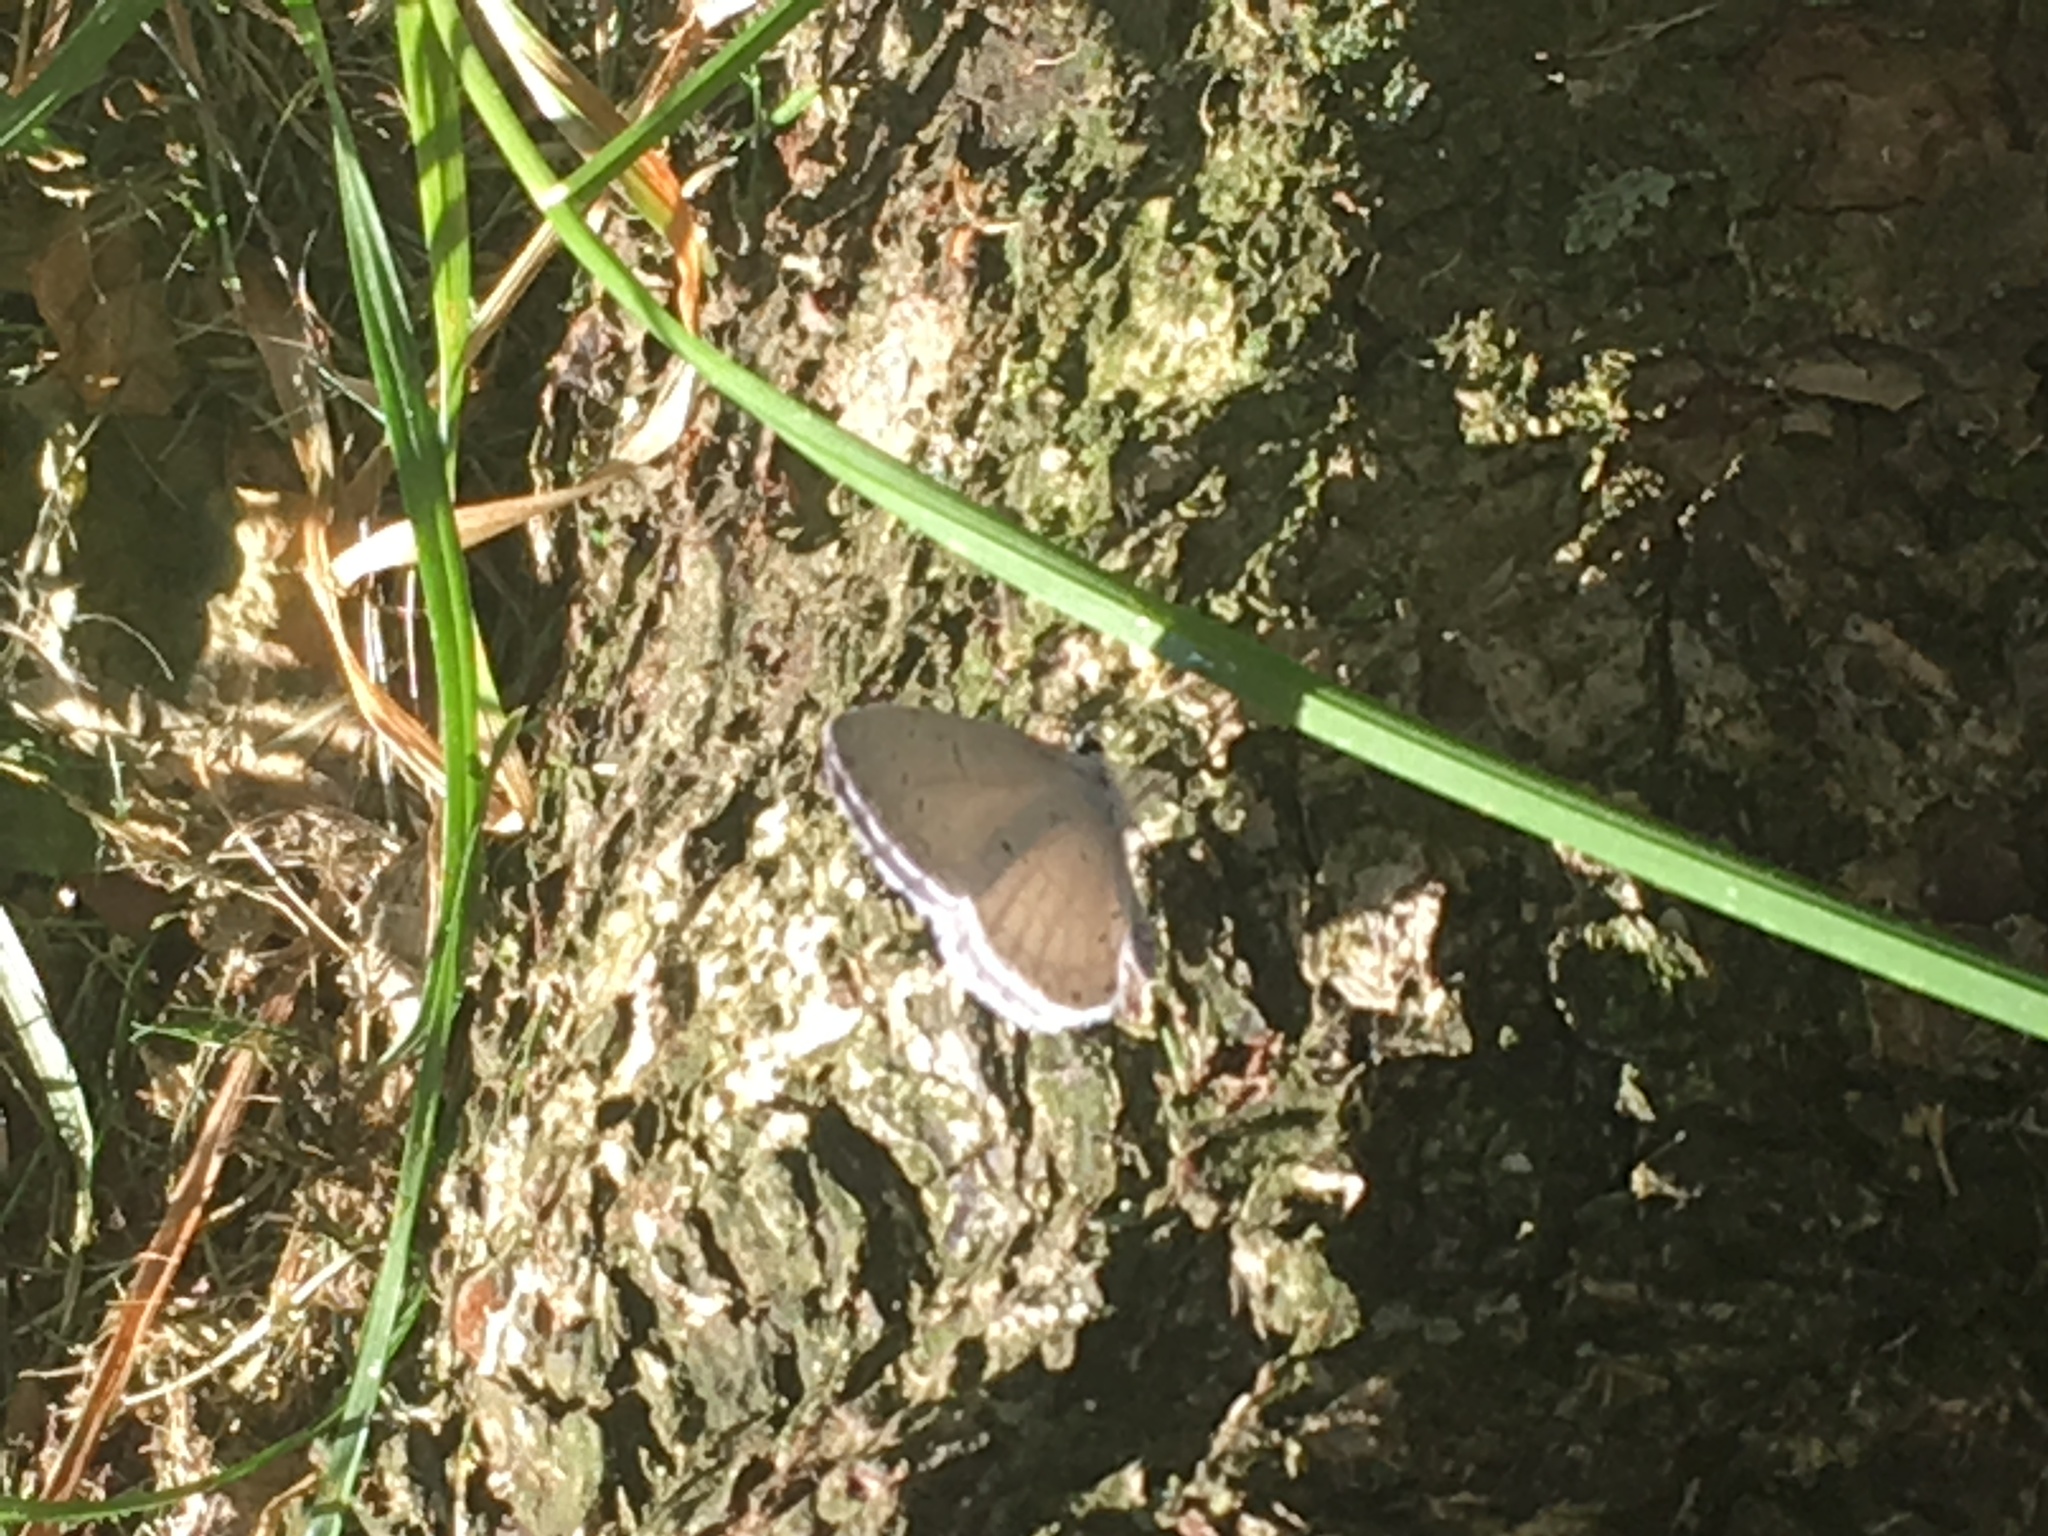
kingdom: Animalia
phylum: Arthropoda
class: Insecta
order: Lepidoptera
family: Lycaenidae
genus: Cyaniris
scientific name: Cyaniris neglecta
